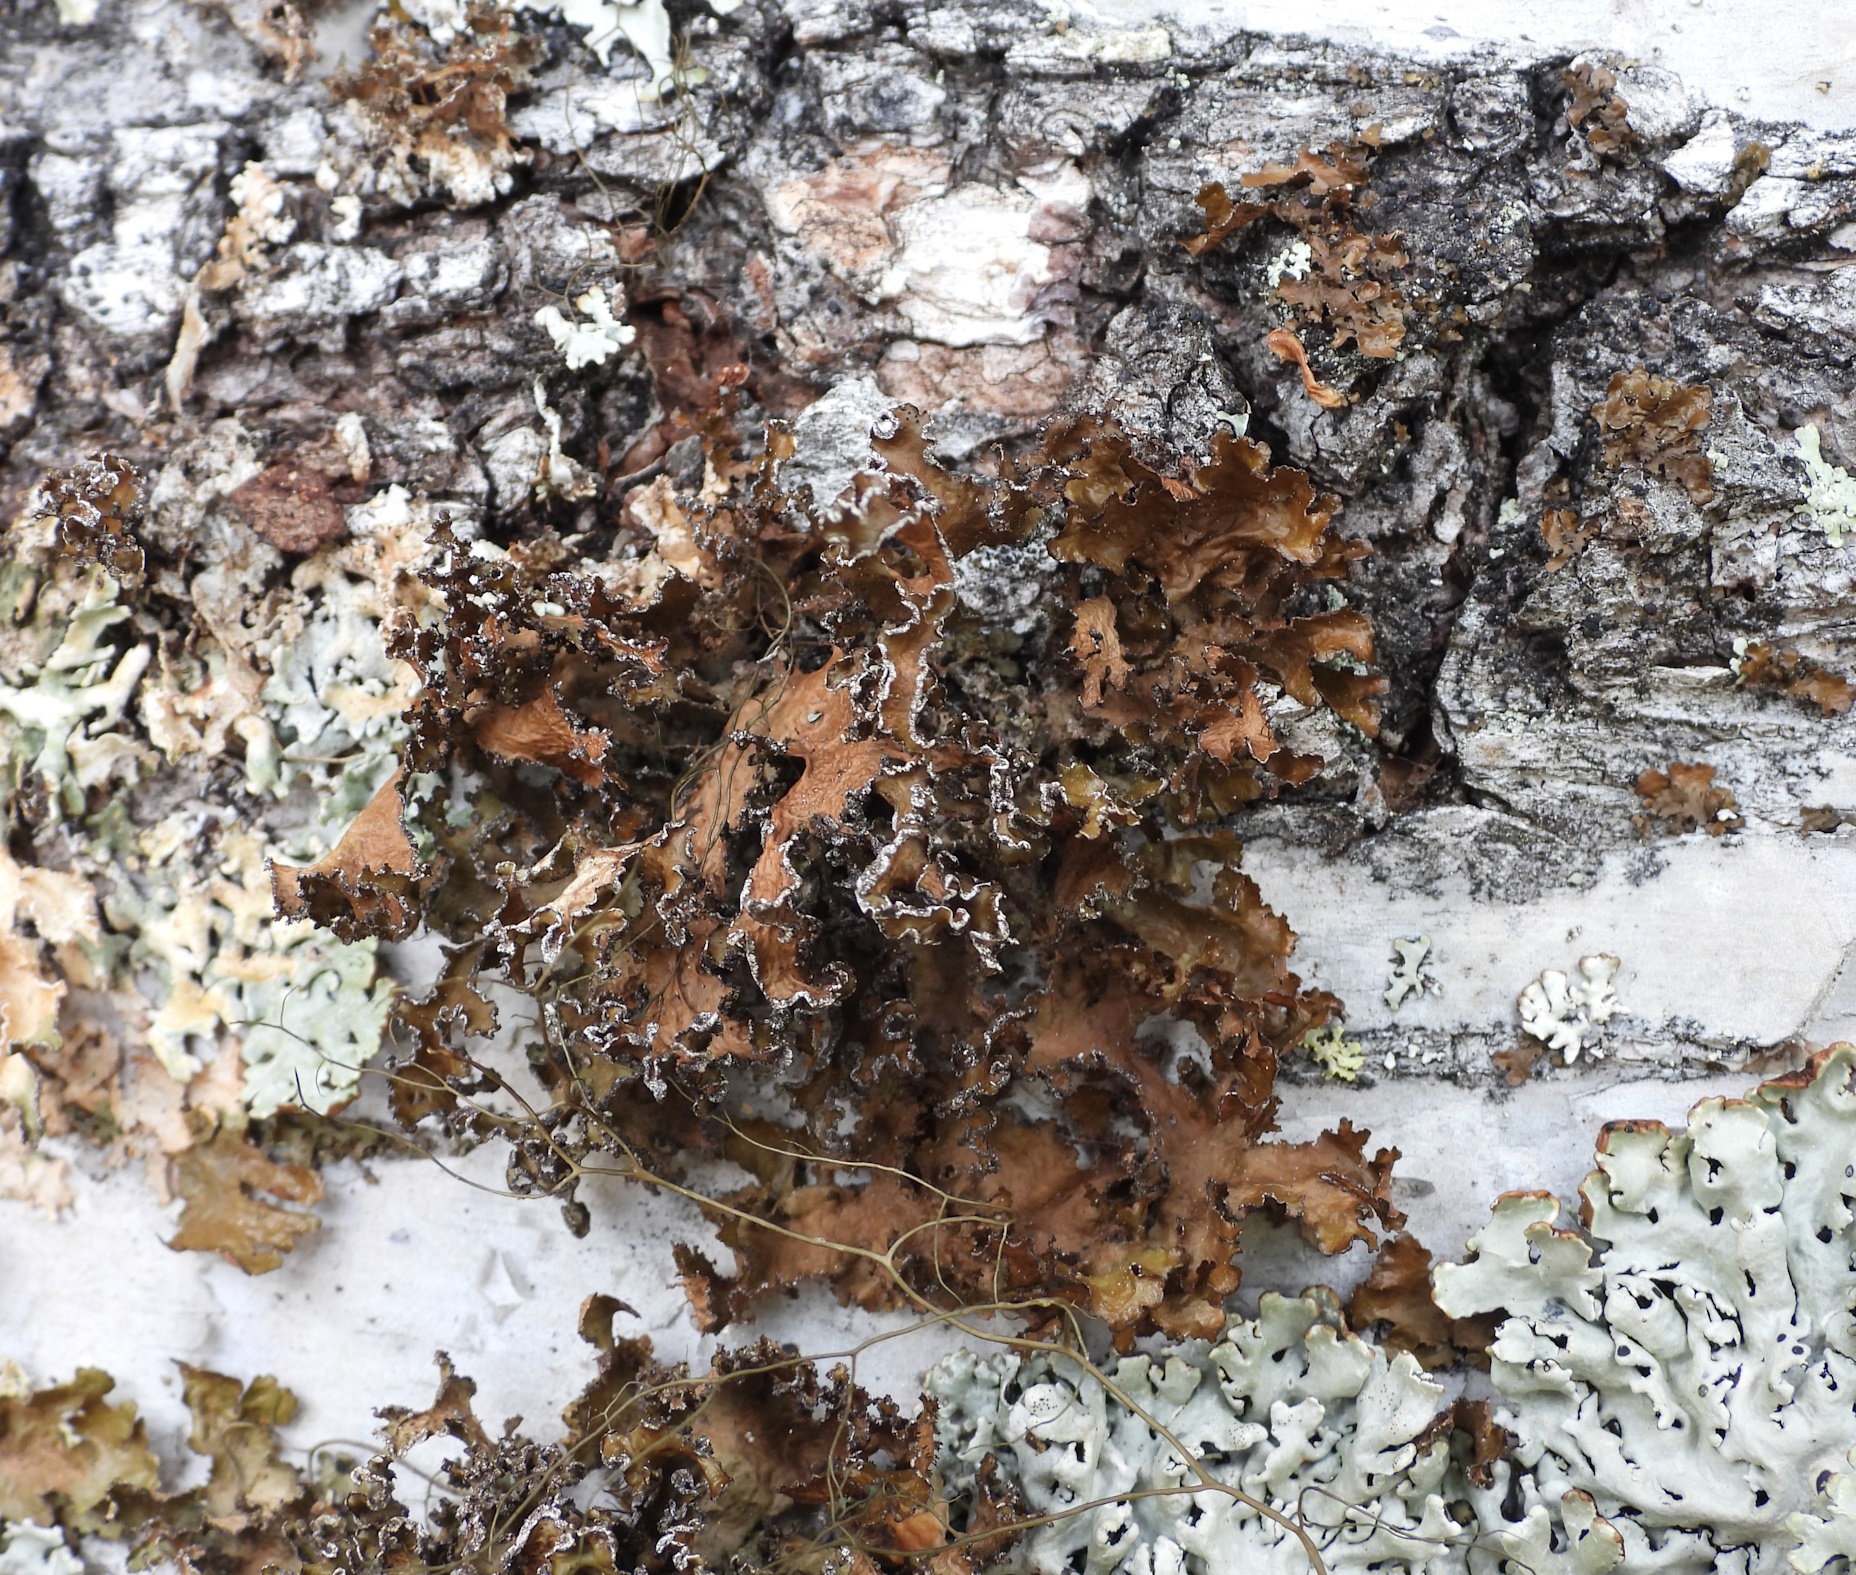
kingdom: Fungi
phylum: Ascomycota
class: Lecanoromycetes
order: Lecanorales
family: Parmeliaceae
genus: Nephromopsis
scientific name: Nephromopsis chlorophylla
